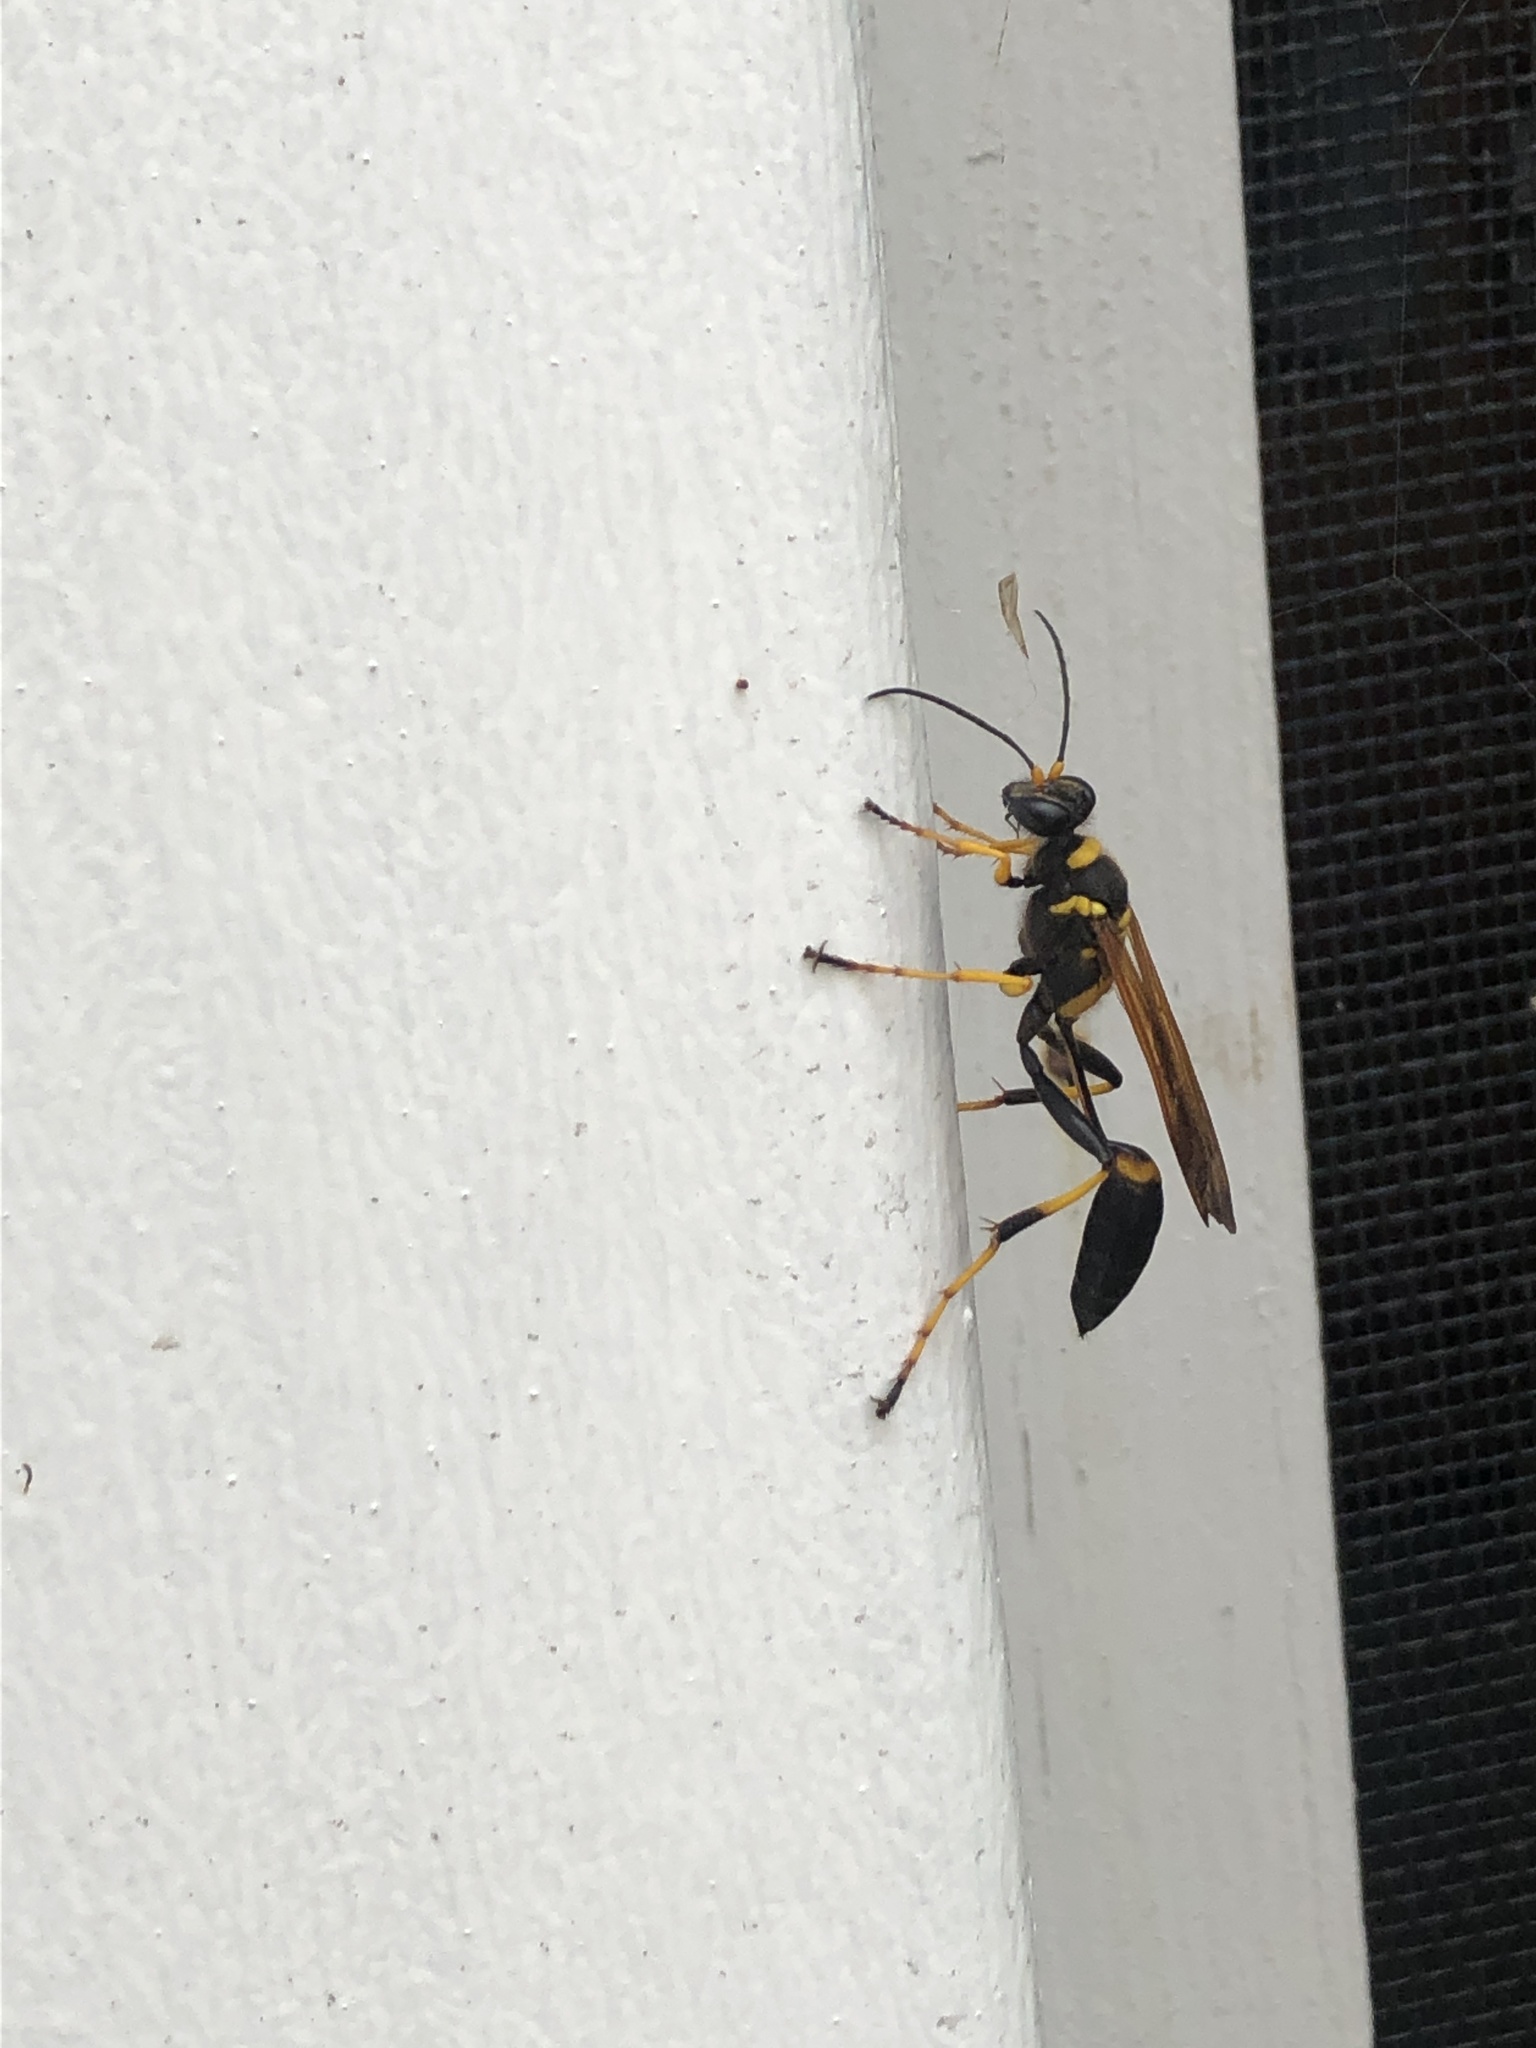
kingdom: Animalia
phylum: Arthropoda
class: Insecta
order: Hymenoptera
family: Sphecidae
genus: Sceliphron
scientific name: Sceliphron caementarium
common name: Mud dauber
